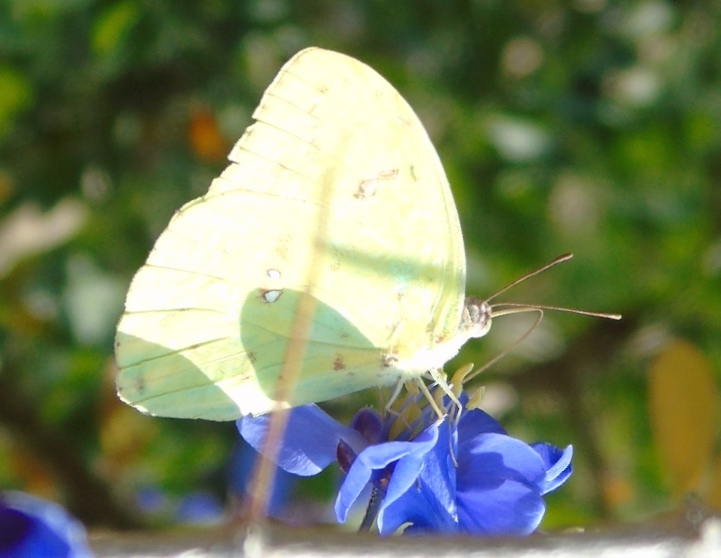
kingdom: Animalia
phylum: Arthropoda
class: Insecta
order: Lepidoptera
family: Pieridae
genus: Phoebis
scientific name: Phoebis sennae
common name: Cloudless sulphur
